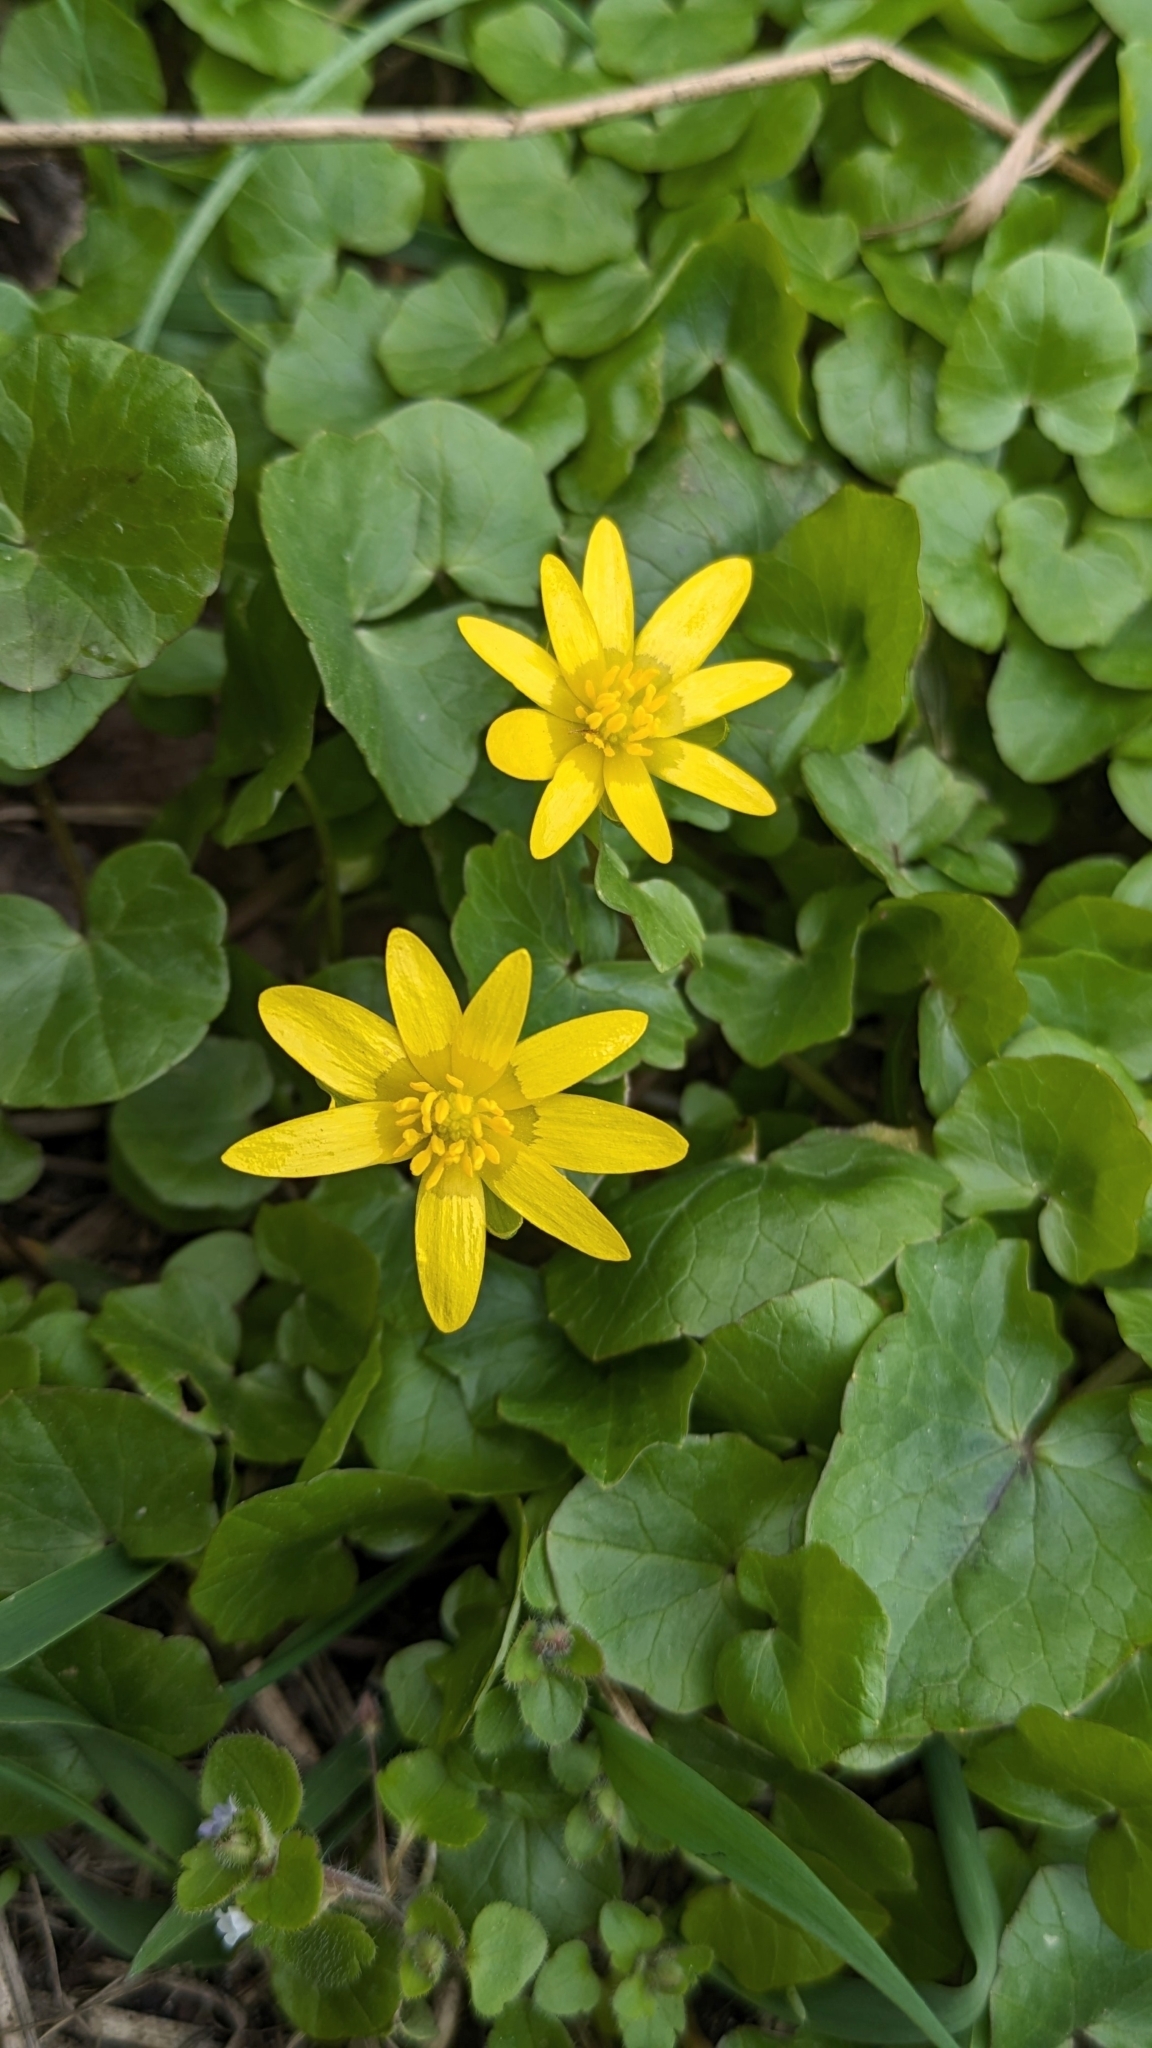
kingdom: Plantae
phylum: Tracheophyta
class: Magnoliopsida
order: Ranunculales
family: Ranunculaceae
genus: Ficaria
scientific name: Ficaria verna
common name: Lesser celandine
